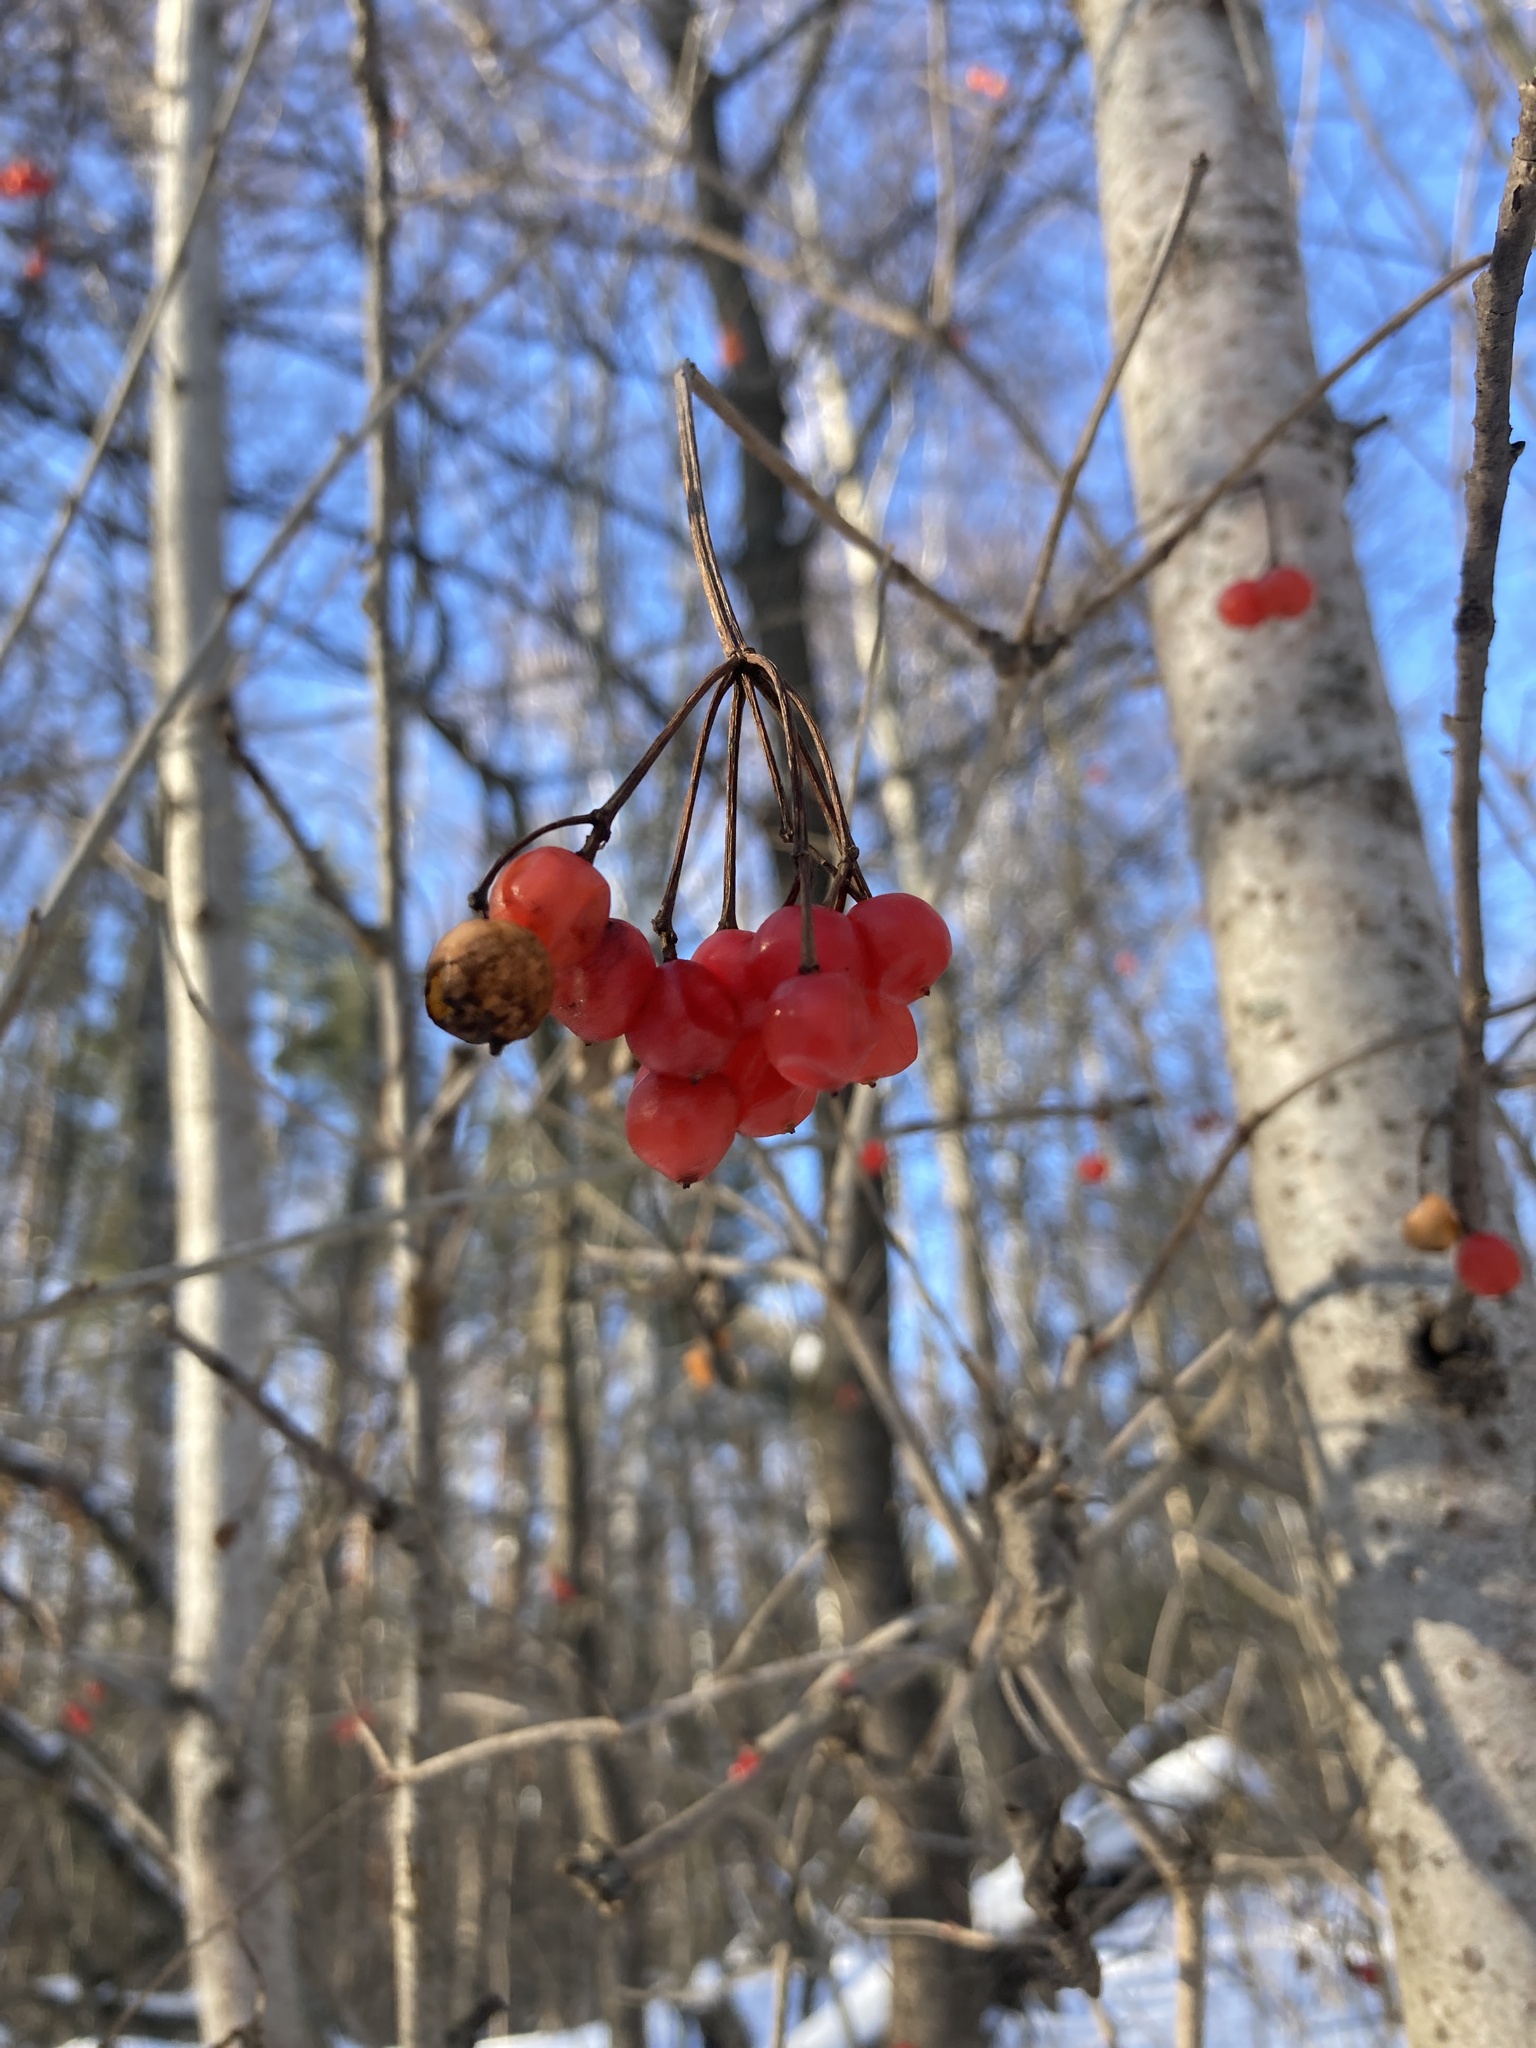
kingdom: Plantae
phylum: Tracheophyta
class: Magnoliopsida
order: Dipsacales
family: Viburnaceae
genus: Viburnum
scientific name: Viburnum opulus
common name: Guelder-rose
